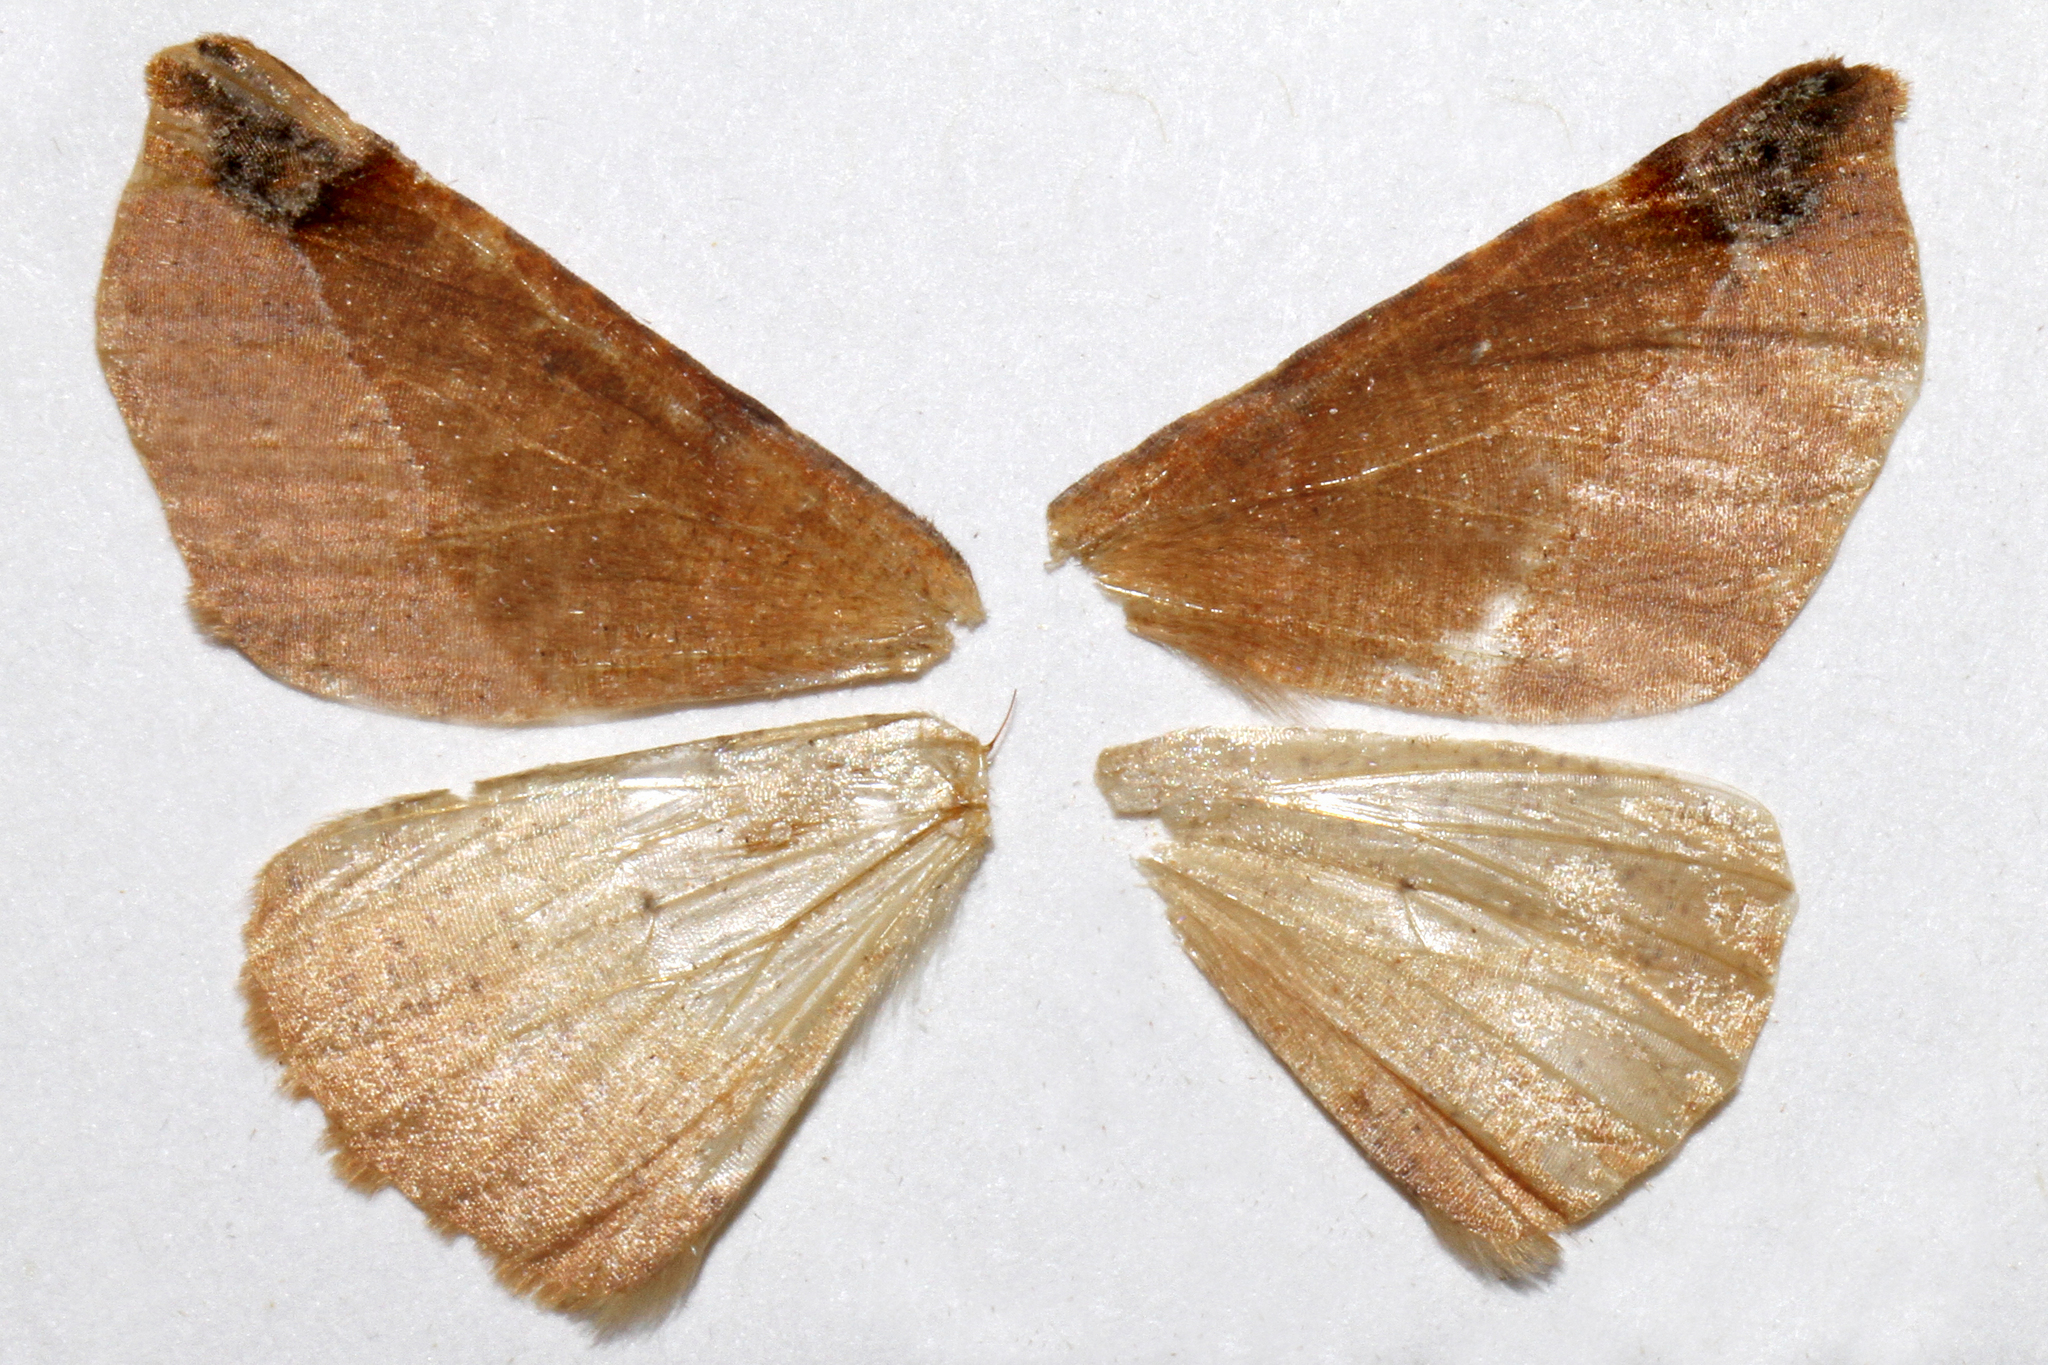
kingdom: Animalia
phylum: Arthropoda
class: Insecta
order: Lepidoptera
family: Geometridae
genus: Synaxis
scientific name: Synaxis triangulata
